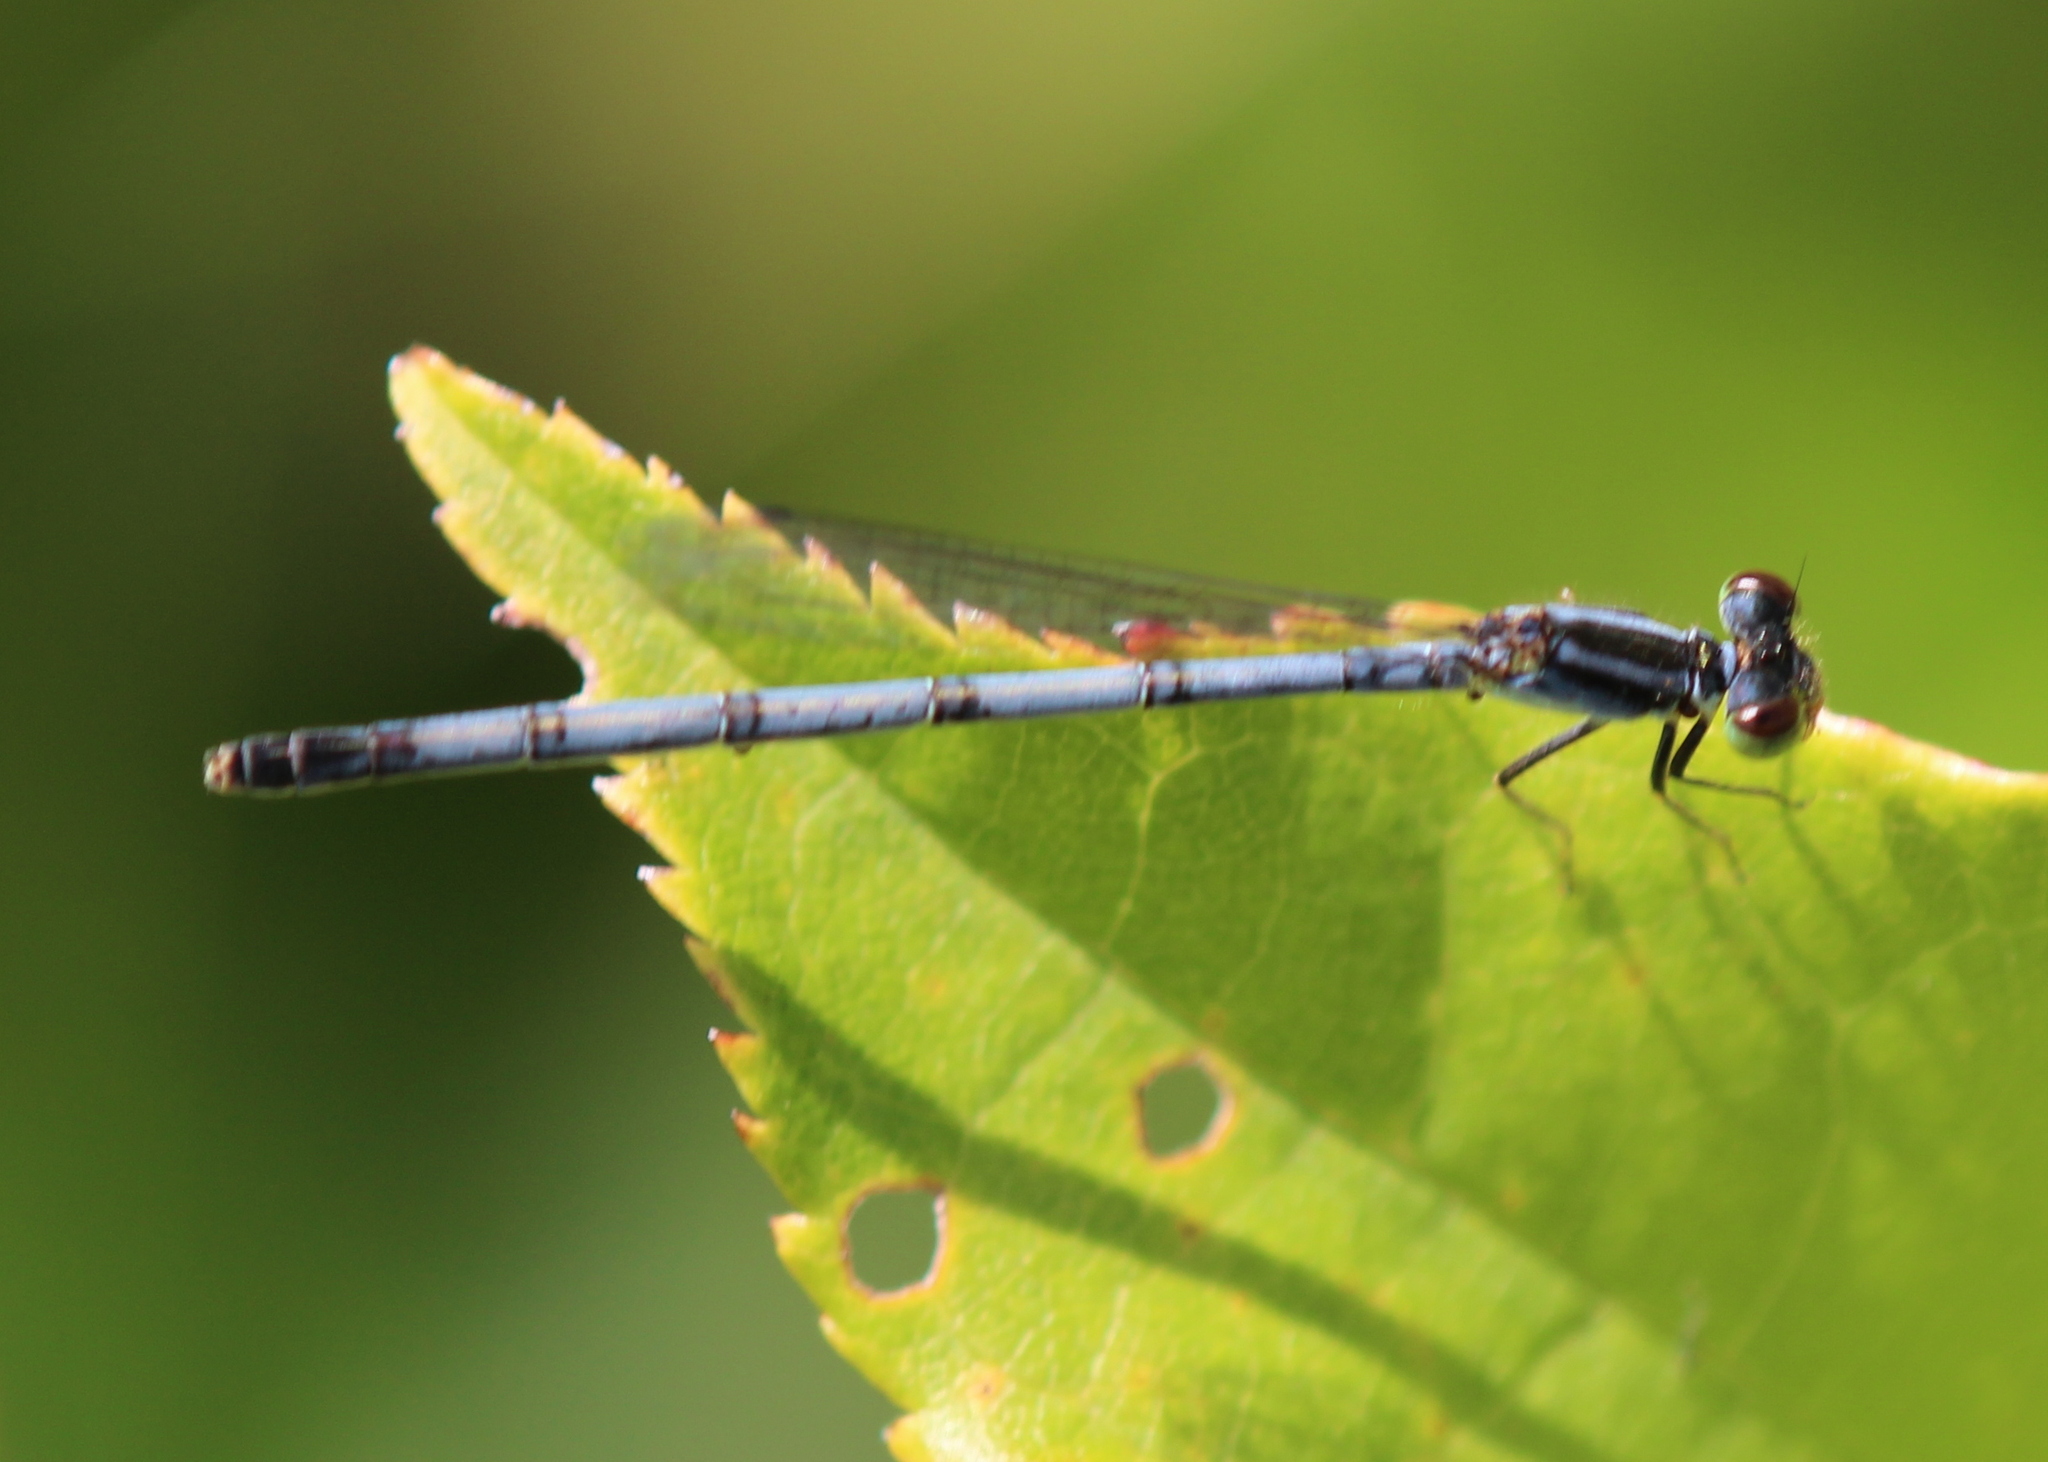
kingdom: Animalia
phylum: Arthropoda
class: Insecta
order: Odonata
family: Coenagrionidae
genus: Ischnura
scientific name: Ischnura verticalis
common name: Eastern forktail
